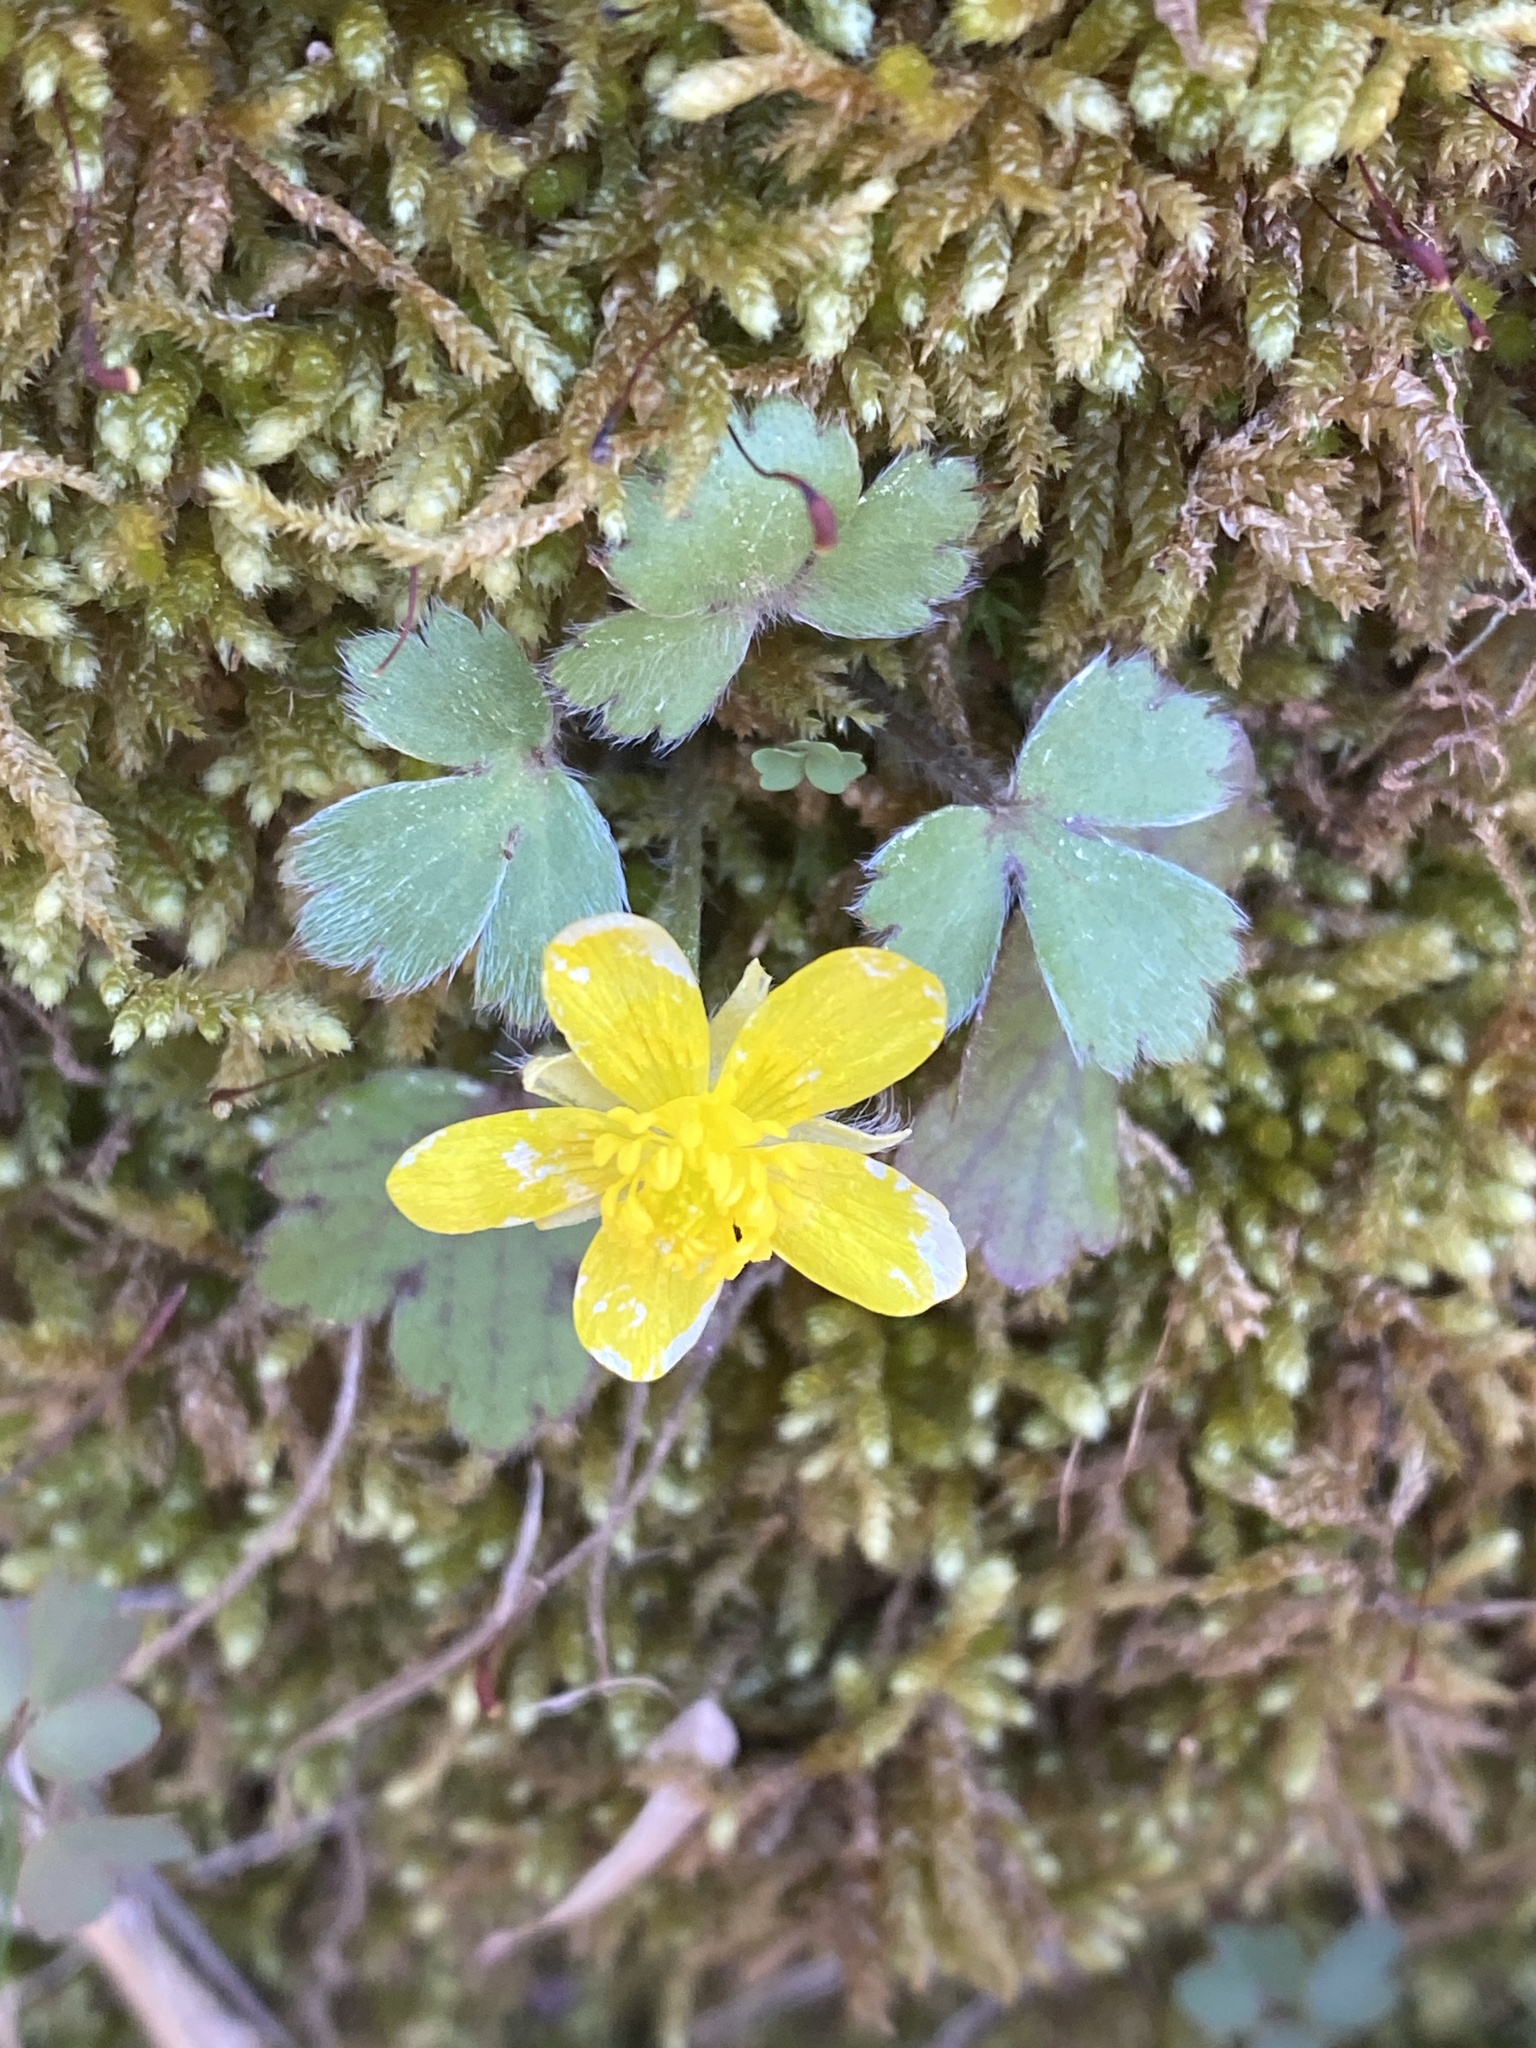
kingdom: Plantae
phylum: Tracheophyta
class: Magnoliopsida
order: Ranunculales
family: Ranunculaceae
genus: Ranunculus
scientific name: Ranunculus hispidus
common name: Bristly buttercup
